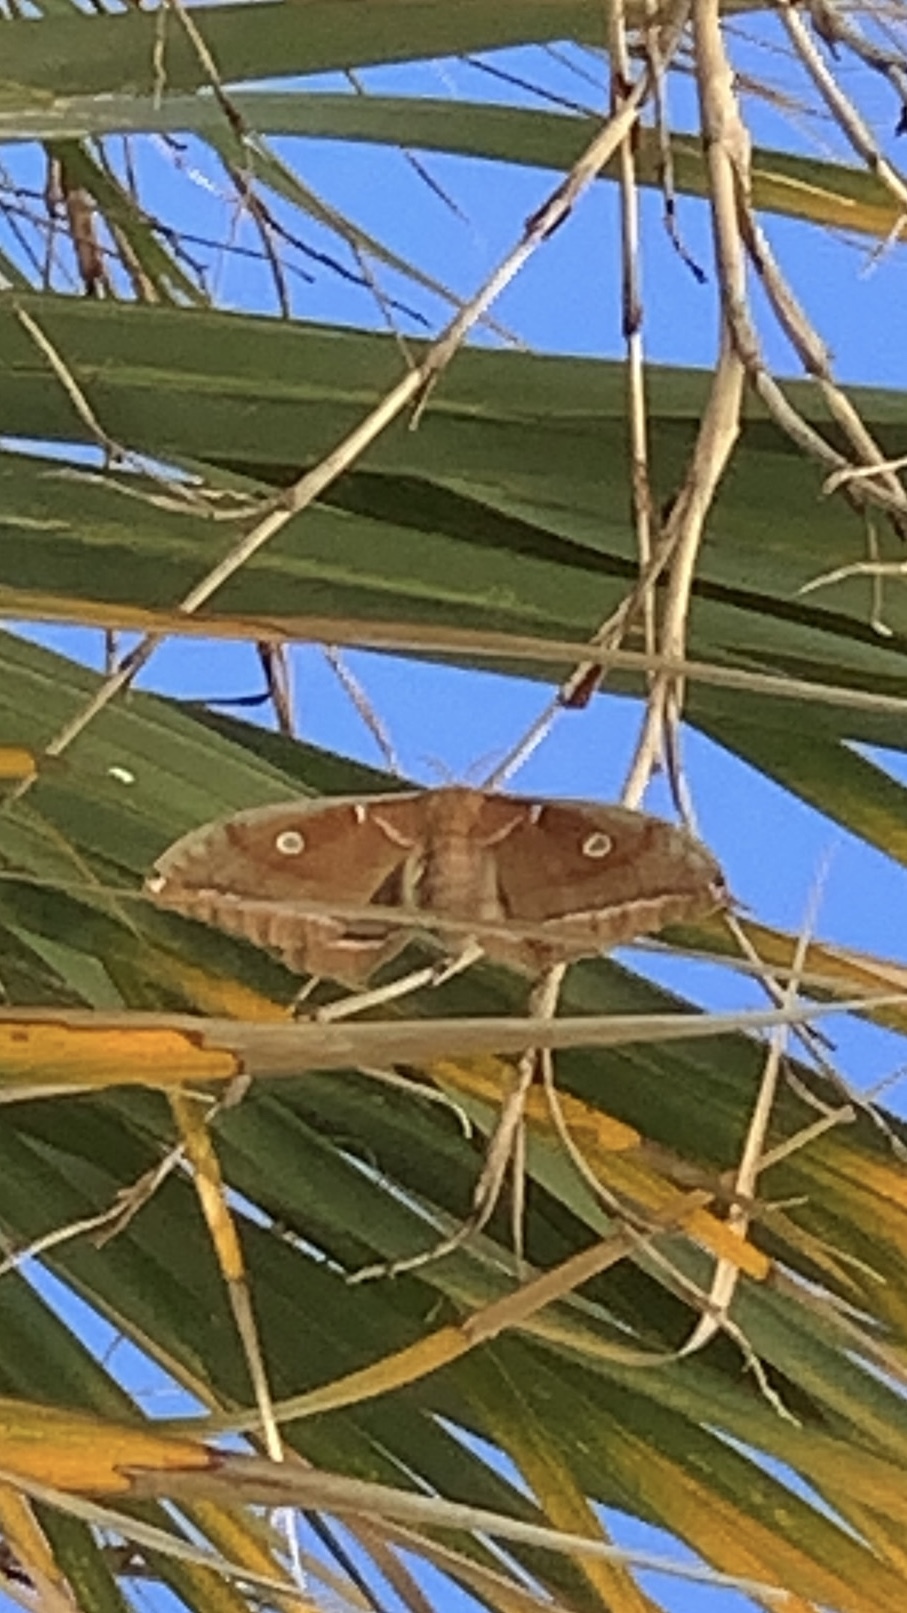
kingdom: Animalia
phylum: Arthropoda
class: Insecta
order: Lepidoptera
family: Saturniidae
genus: Antheraea
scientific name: Antheraea polyphemus
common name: Polyphemus moth
